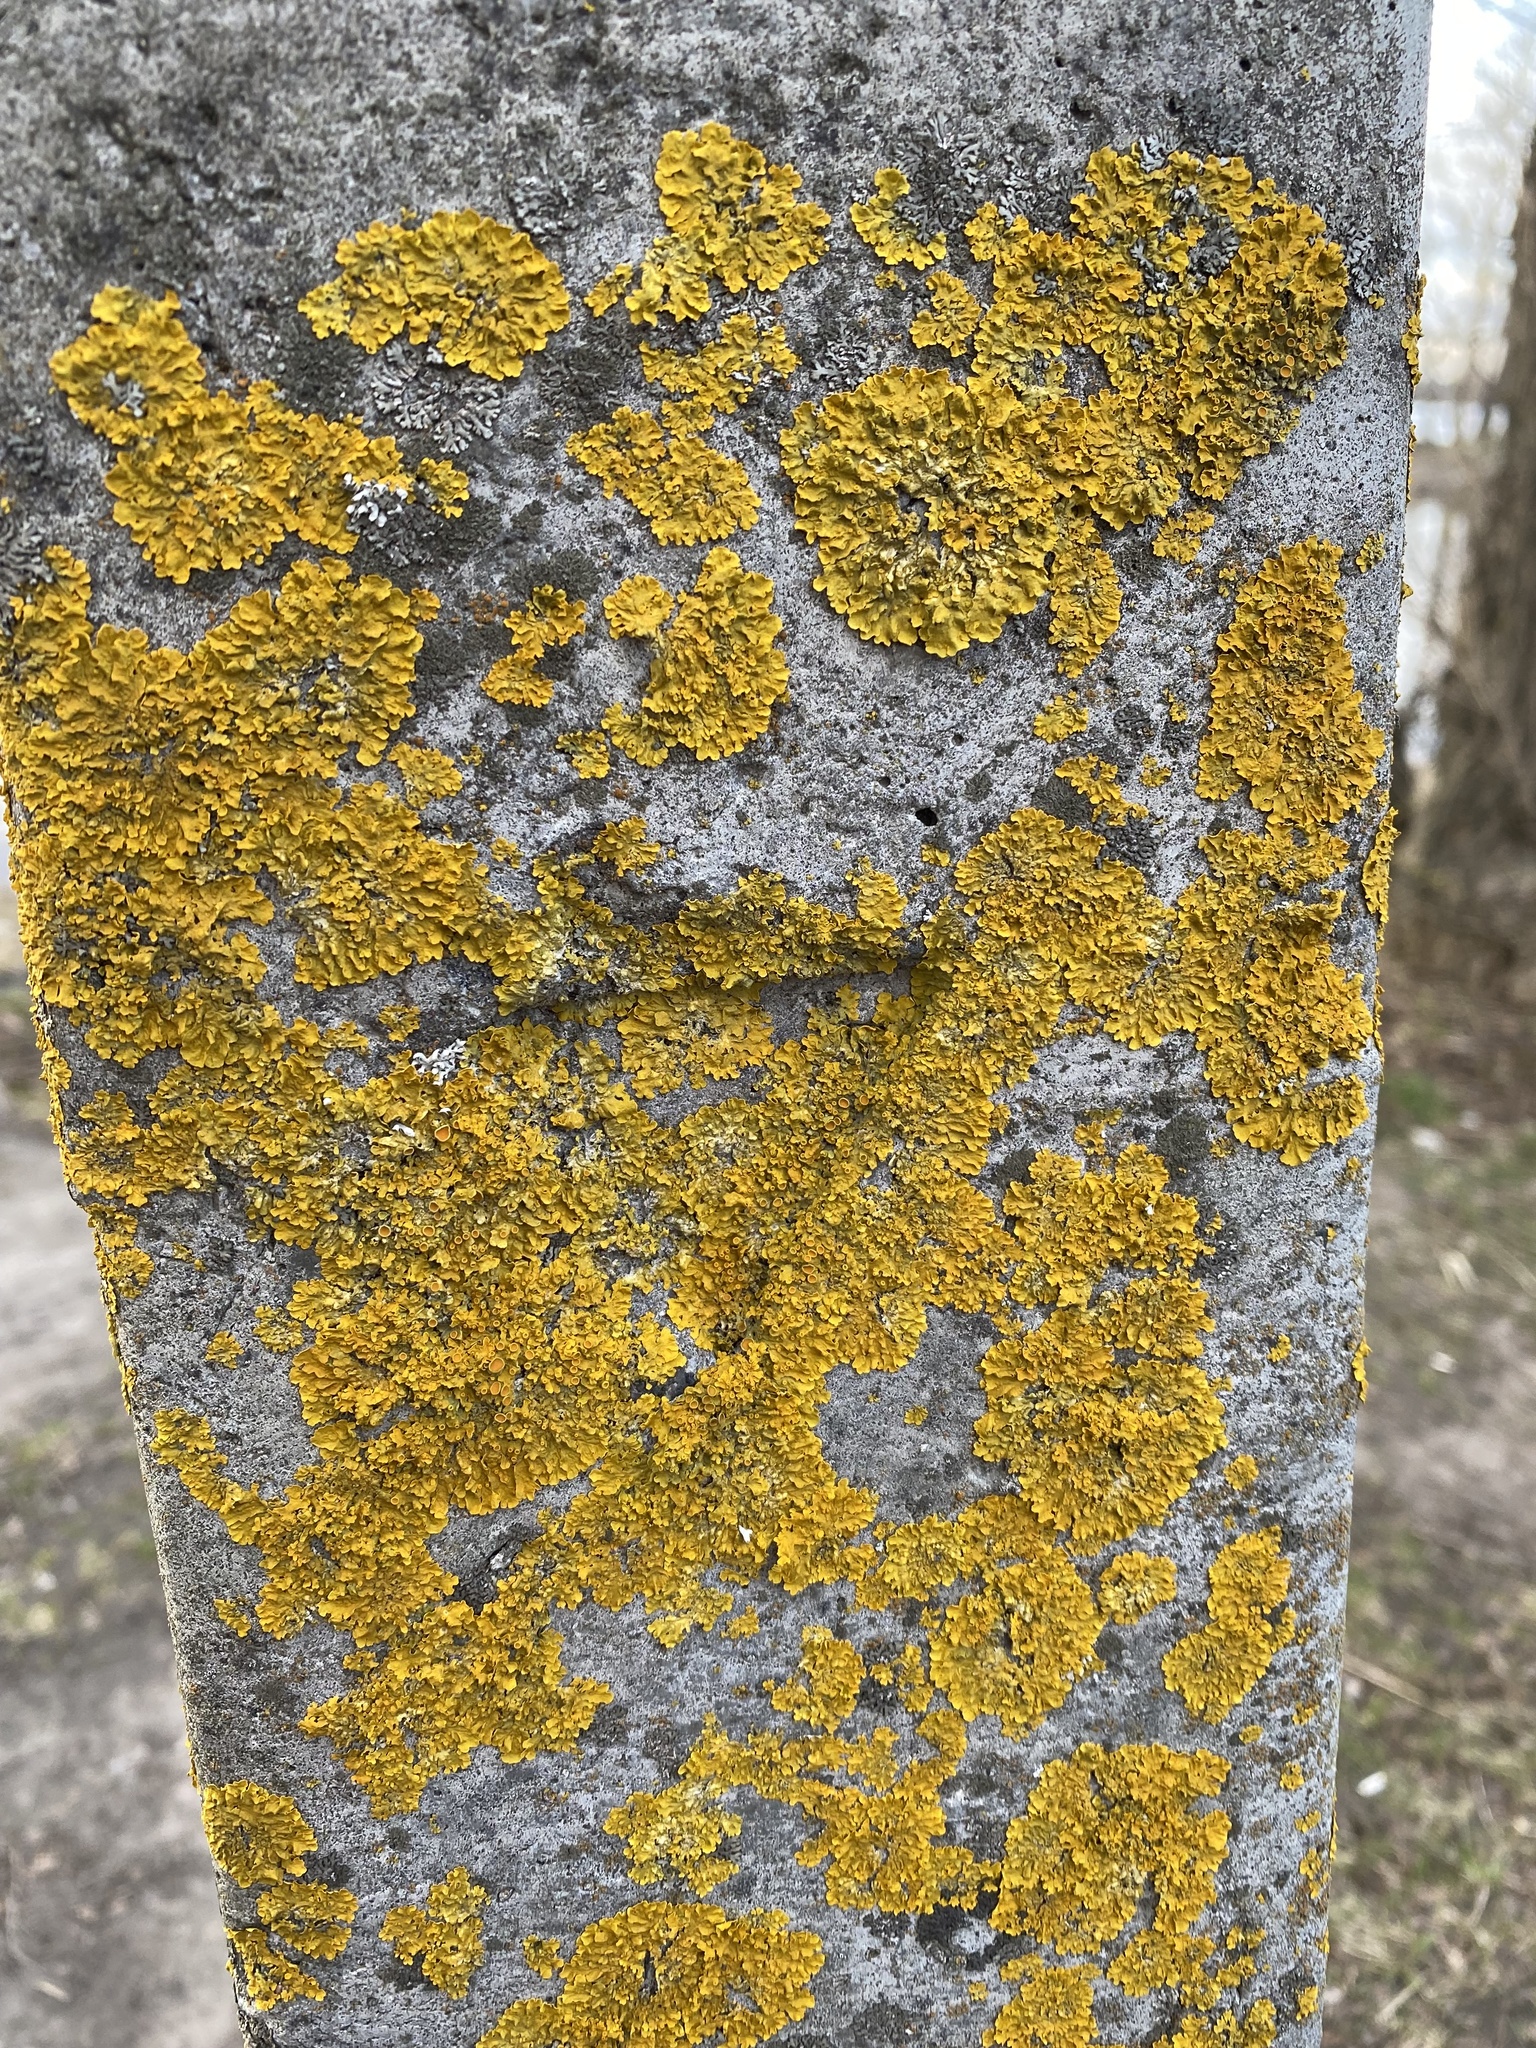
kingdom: Fungi
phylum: Ascomycota
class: Lecanoromycetes
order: Teloschistales
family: Teloschistaceae
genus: Xanthoria
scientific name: Xanthoria parietina
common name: Common orange lichen
